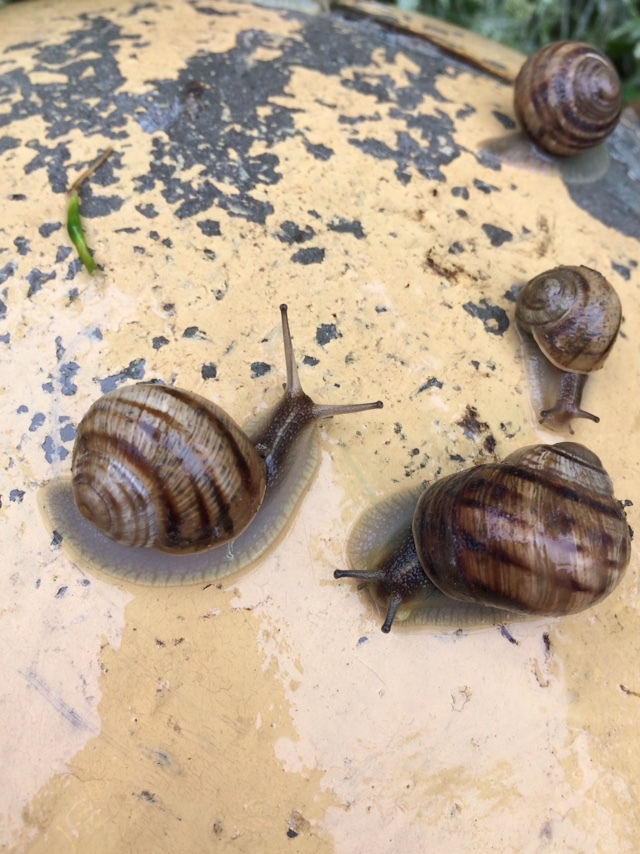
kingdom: Animalia
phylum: Mollusca
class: Gastropoda
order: Stylommatophora
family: Helicidae
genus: Helix
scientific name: Helix albescens
